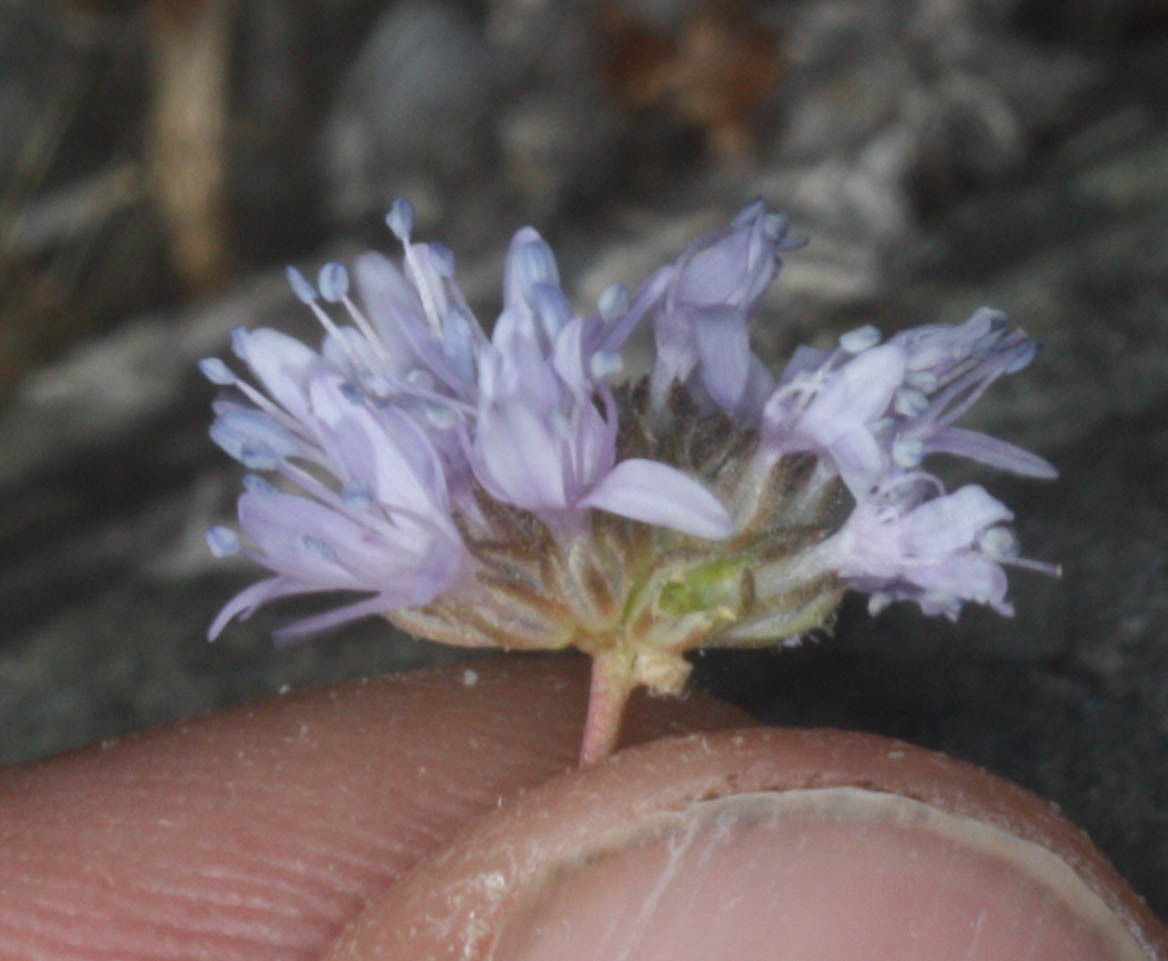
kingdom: Plantae
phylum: Tracheophyta
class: Magnoliopsida
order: Ericales
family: Polemoniaceae
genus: Gilia
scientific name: Gilia capitata
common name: Bluehead gilia
